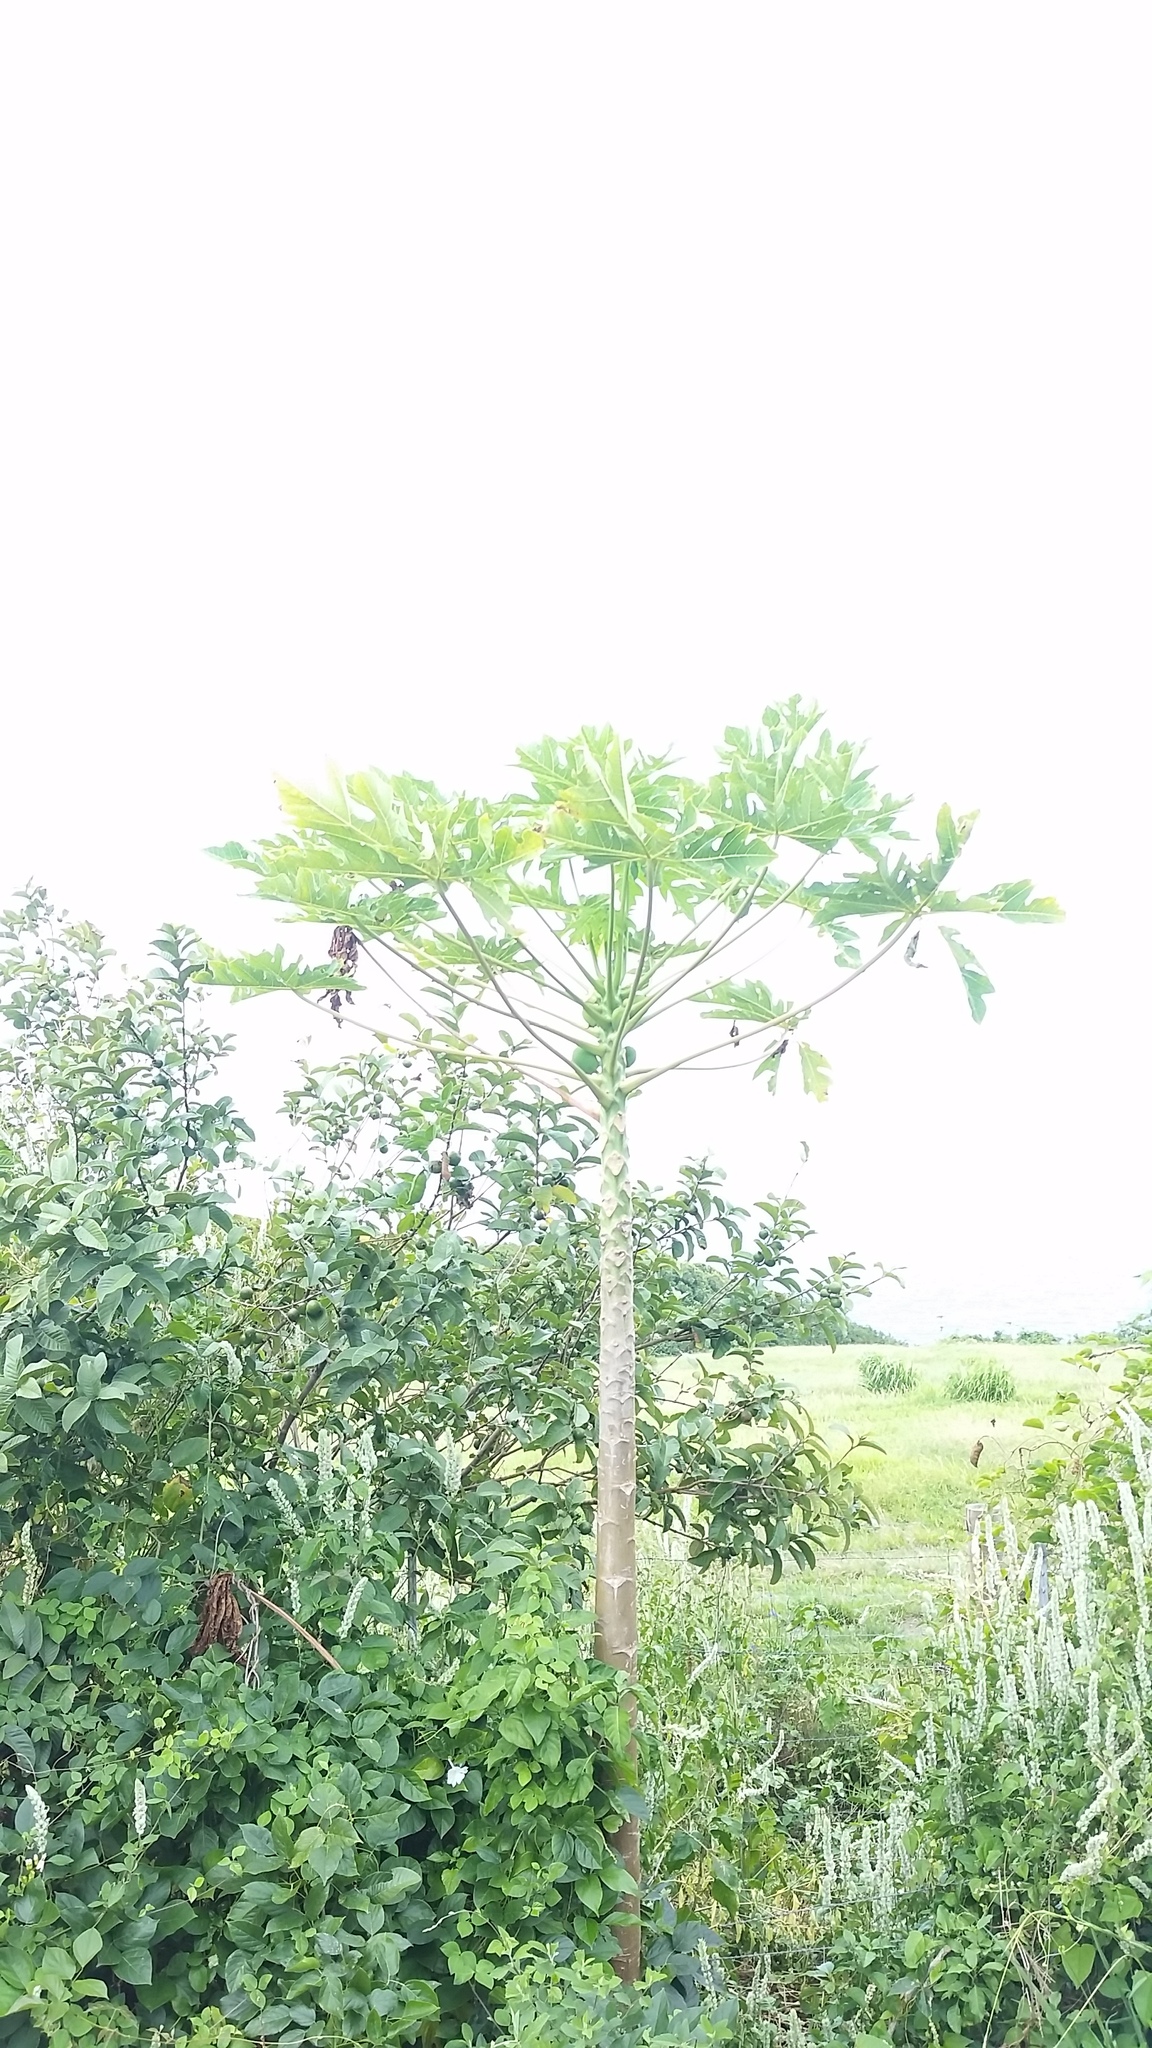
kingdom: Plantae
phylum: Tracheophyta
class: Magnoliopsida
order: Brassicales
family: Caricaceae
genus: Carica
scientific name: Carica papaya
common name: Papaya
